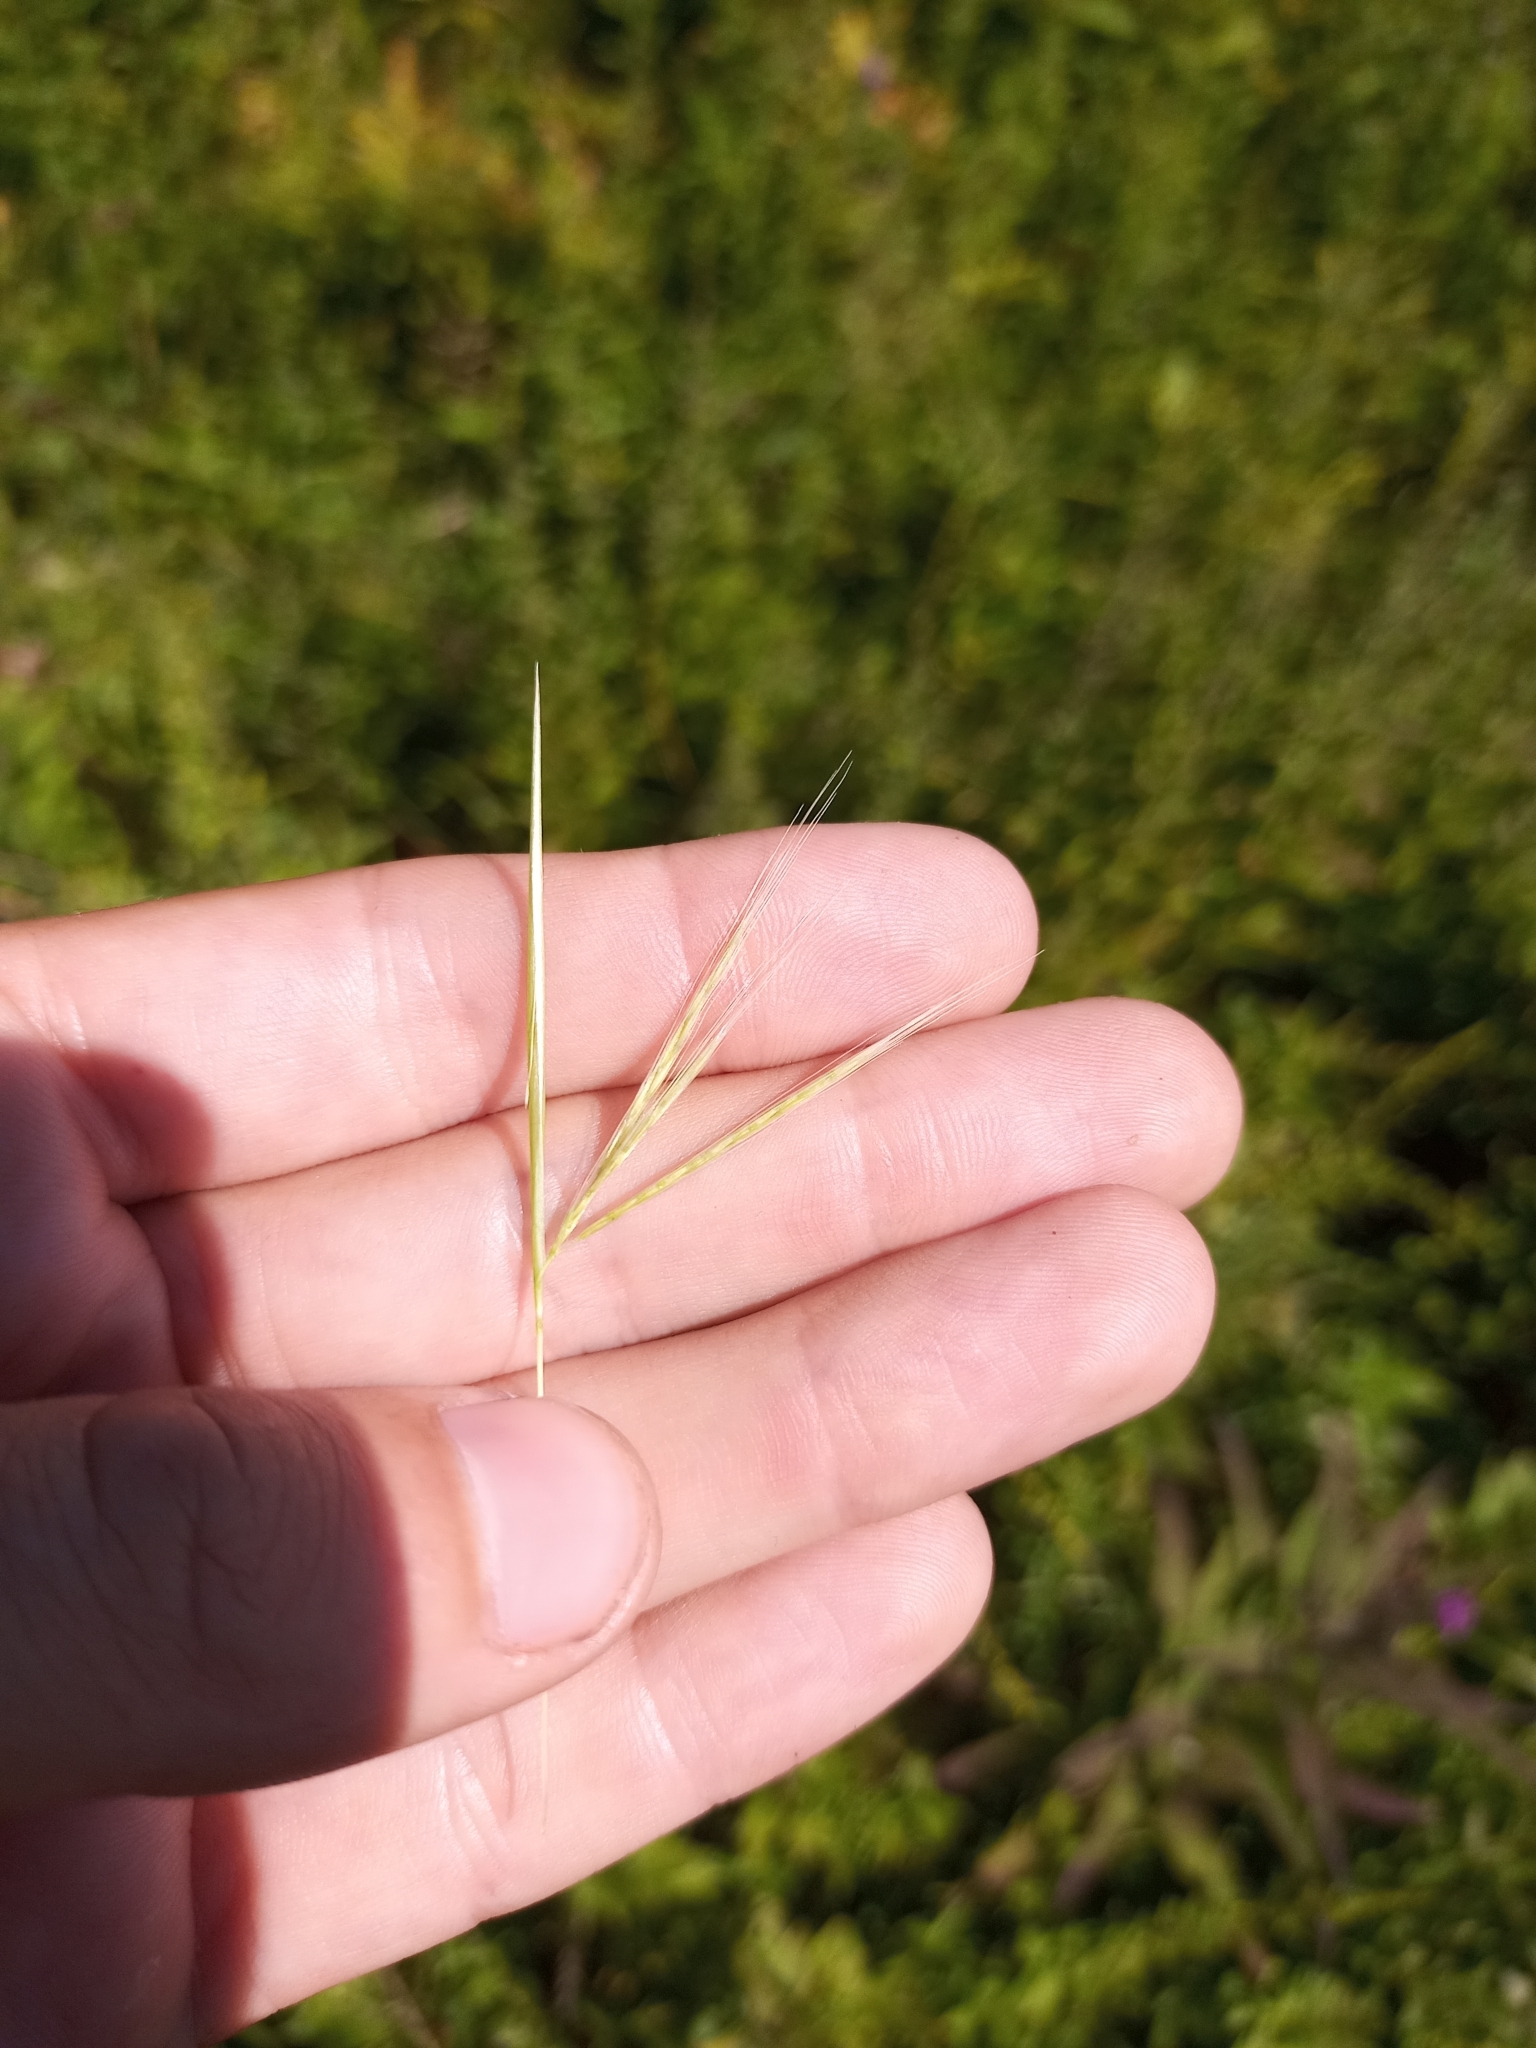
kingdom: Plantae
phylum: Tracheophyta
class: Liliopsida
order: Poales
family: Poaceae
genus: Andropogon
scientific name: Andropogon virginicus
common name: Broomsedge bluestem
